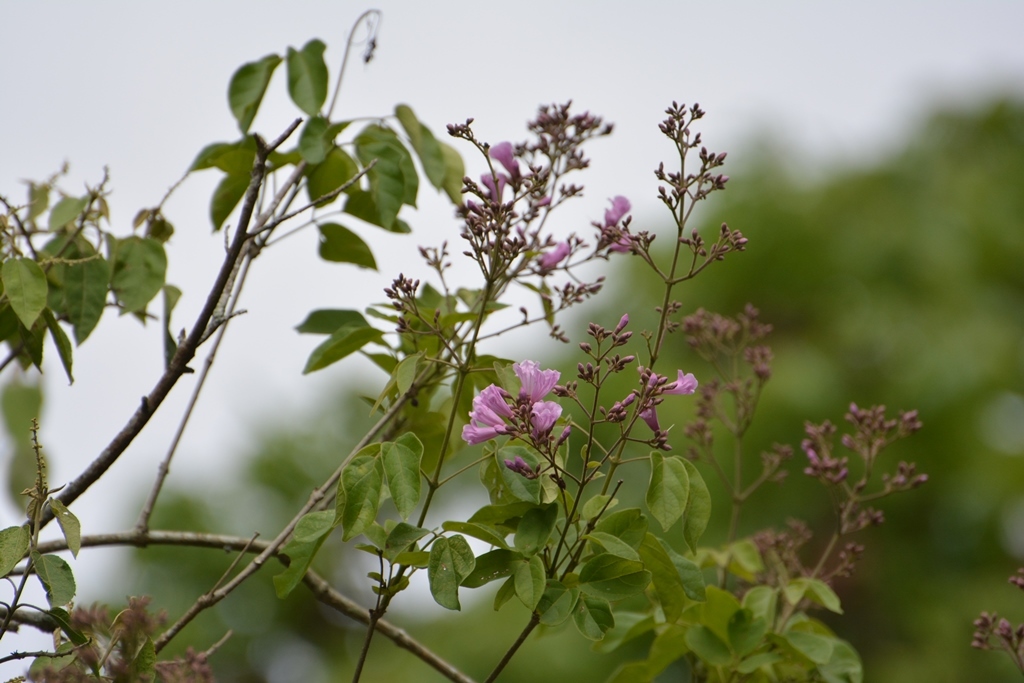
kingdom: Plantae
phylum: Tracheophyta
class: Magnoliopsida
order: Lamiales
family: Bignoniaceae
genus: Fridericia
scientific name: Fridericia floribunda
